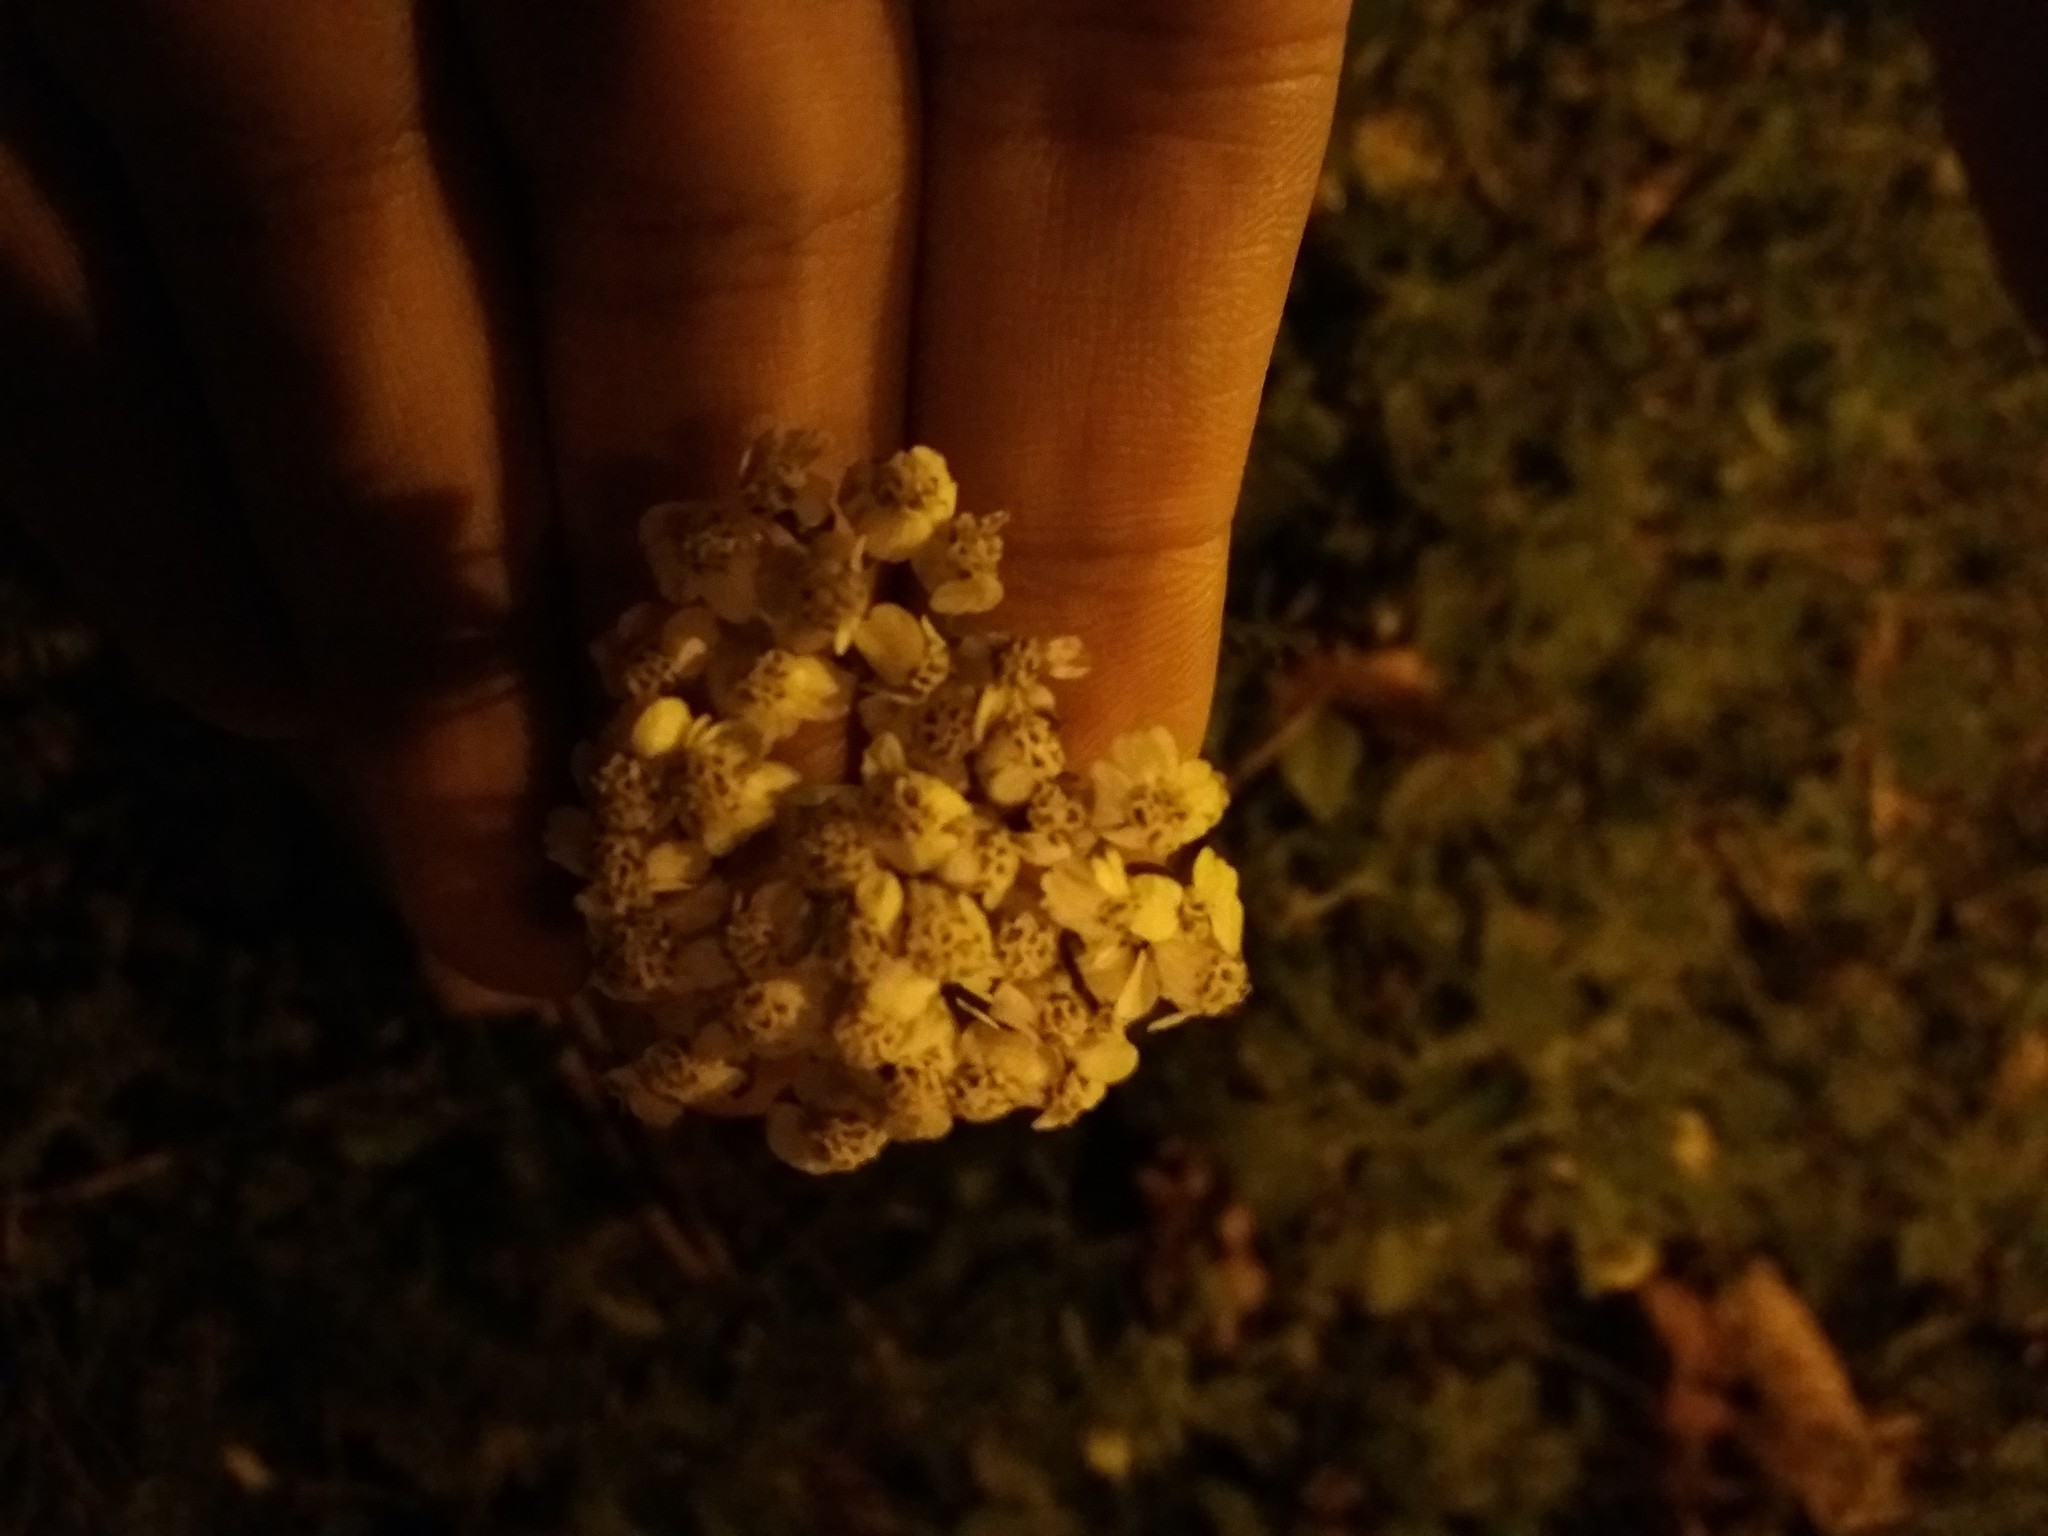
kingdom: Plantae
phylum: Tracheophyta
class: Magnoliopsida
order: Asterales
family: Asteraceae
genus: Achillea
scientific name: Achillea millefolium
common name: Yarrow
